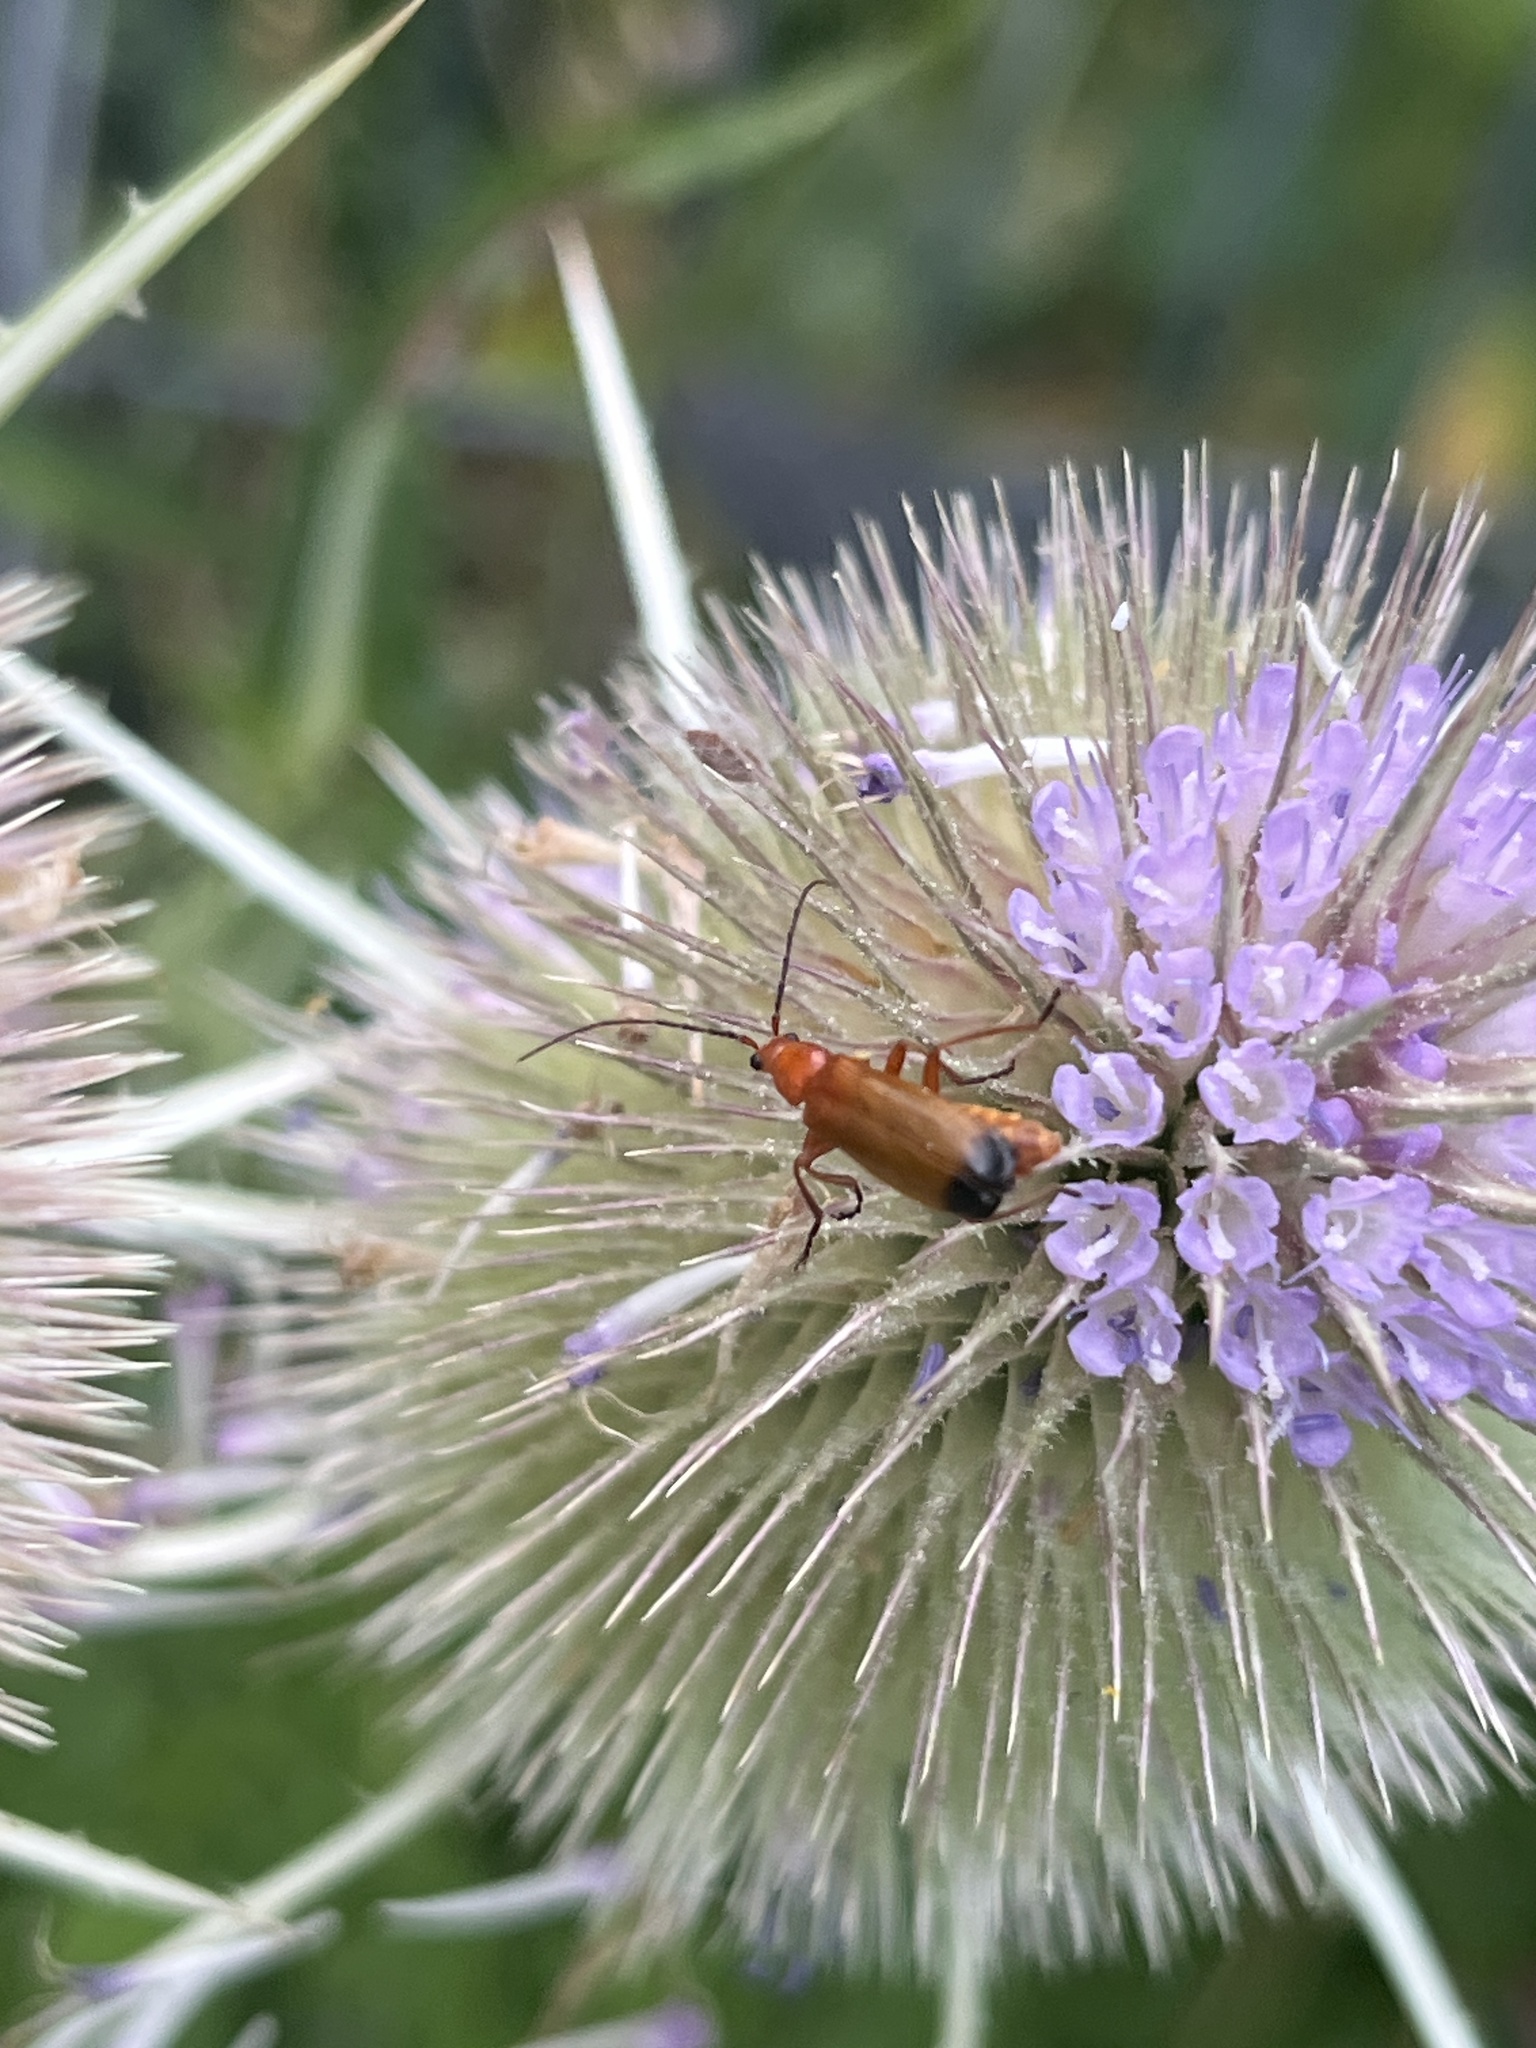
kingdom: Animalia
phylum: Arthropoda
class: Insecta
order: Coleoptera
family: Cantharidae
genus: Rhagonycha
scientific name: Rhagonycha fulva
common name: Common red soldier beetle
